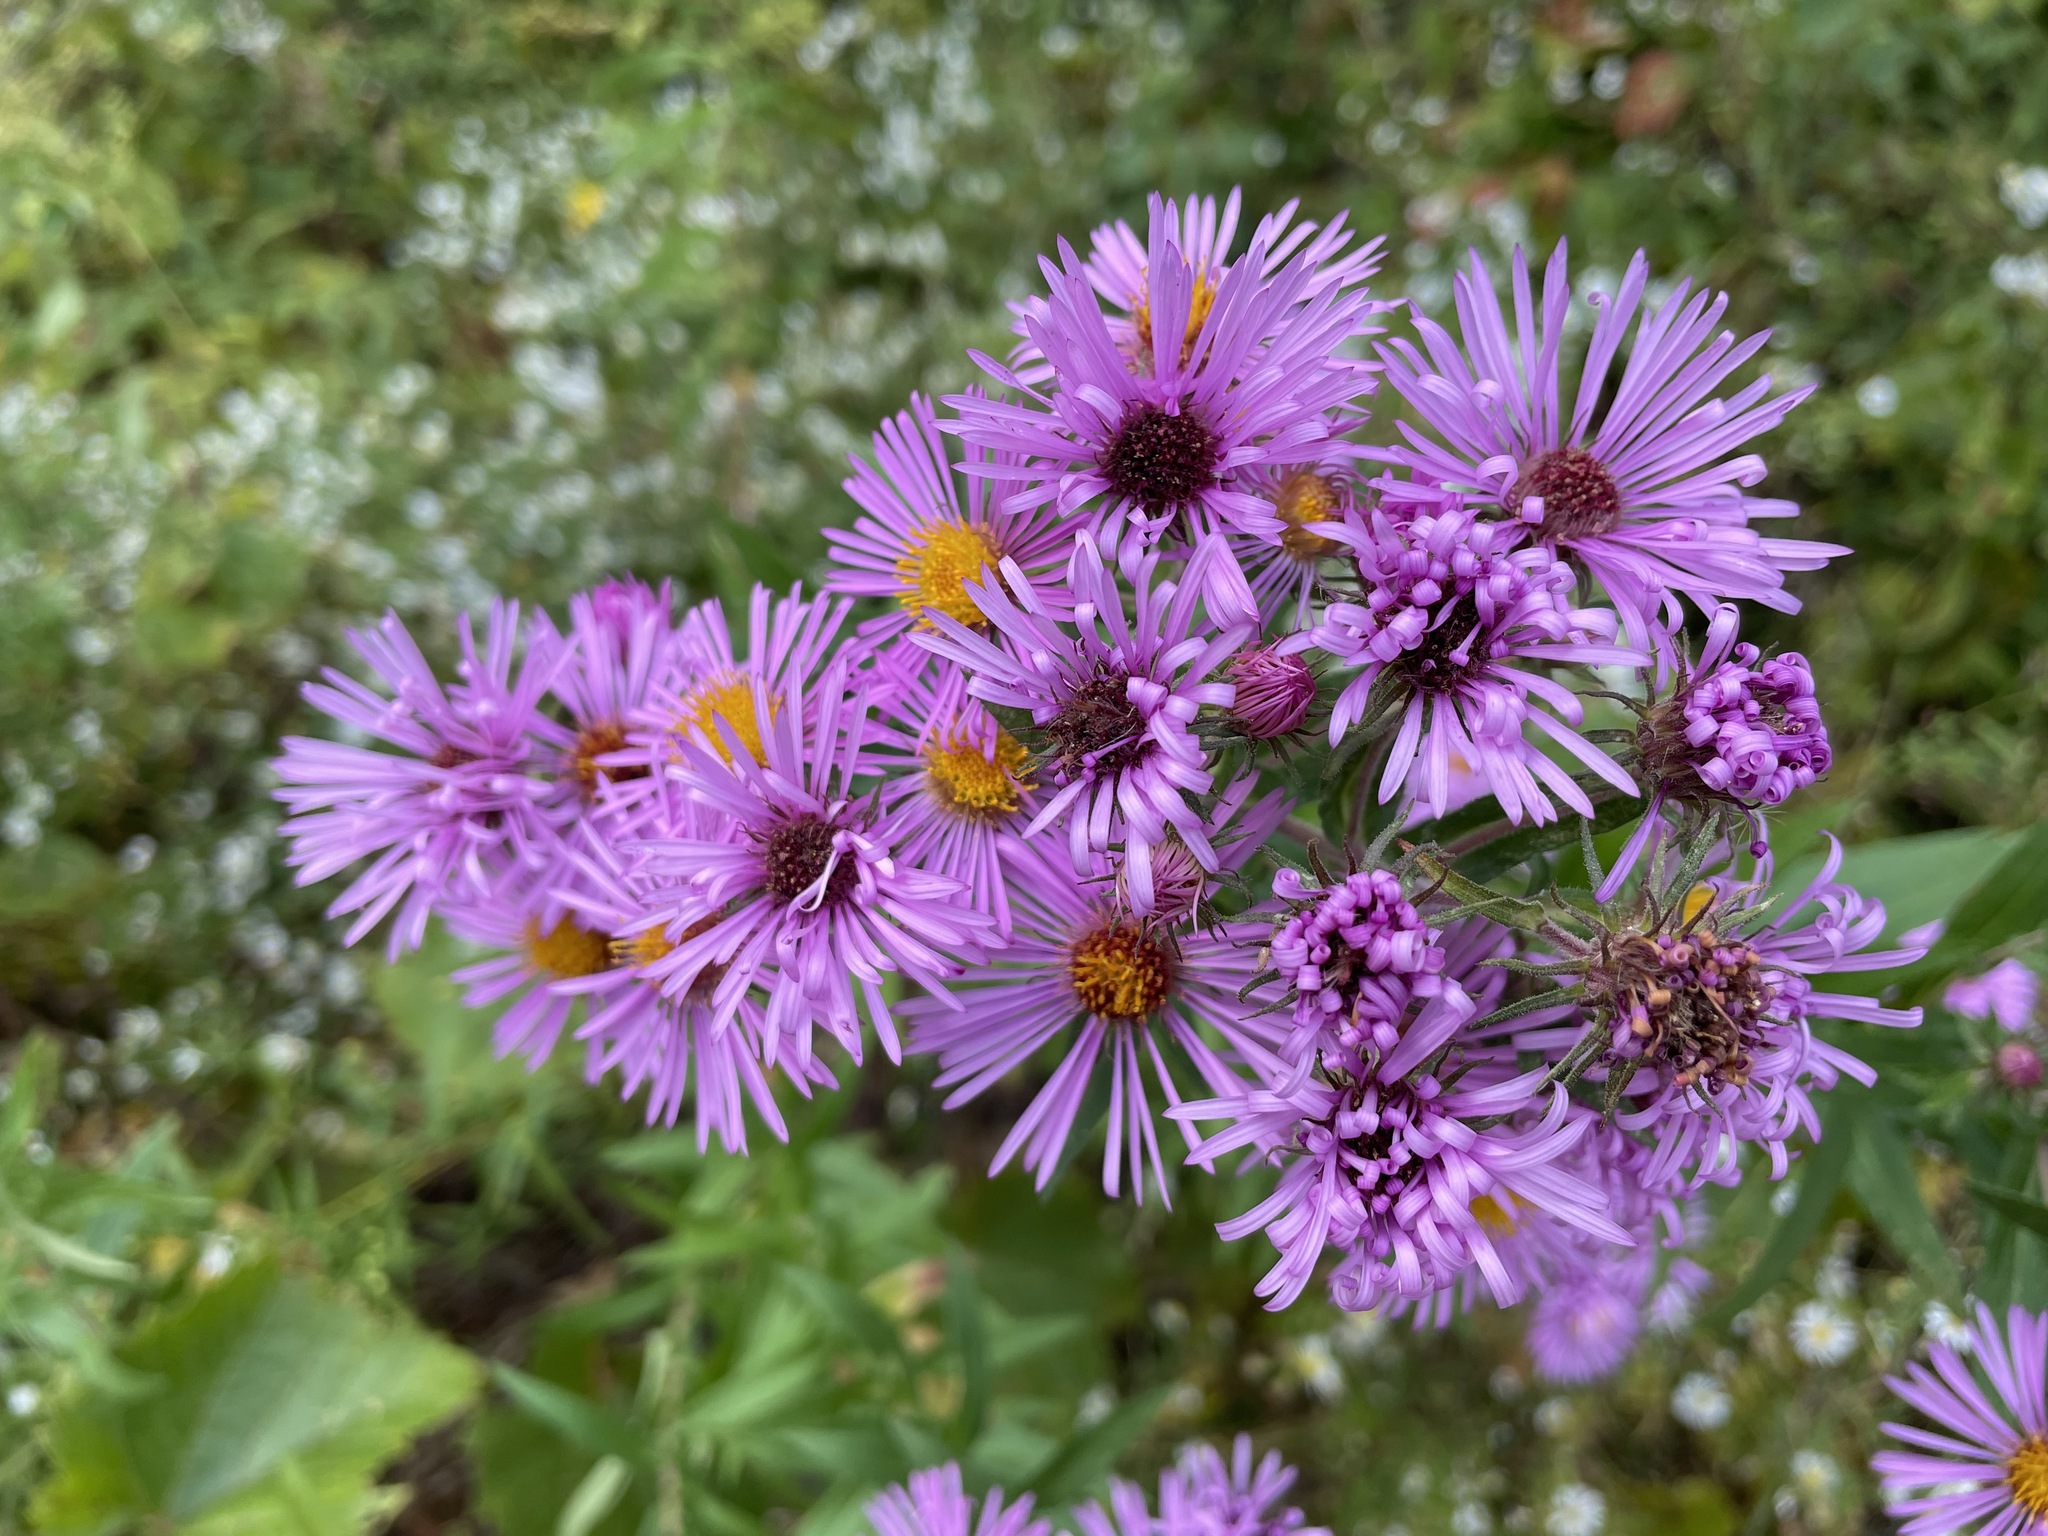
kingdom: Plantae
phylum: Tracheophyta
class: Magnoliopsida
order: Asterales
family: Asteraceae
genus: Symphyotrichum
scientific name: Symphyotrichum novae-angliae
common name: Michaelmas daisy
